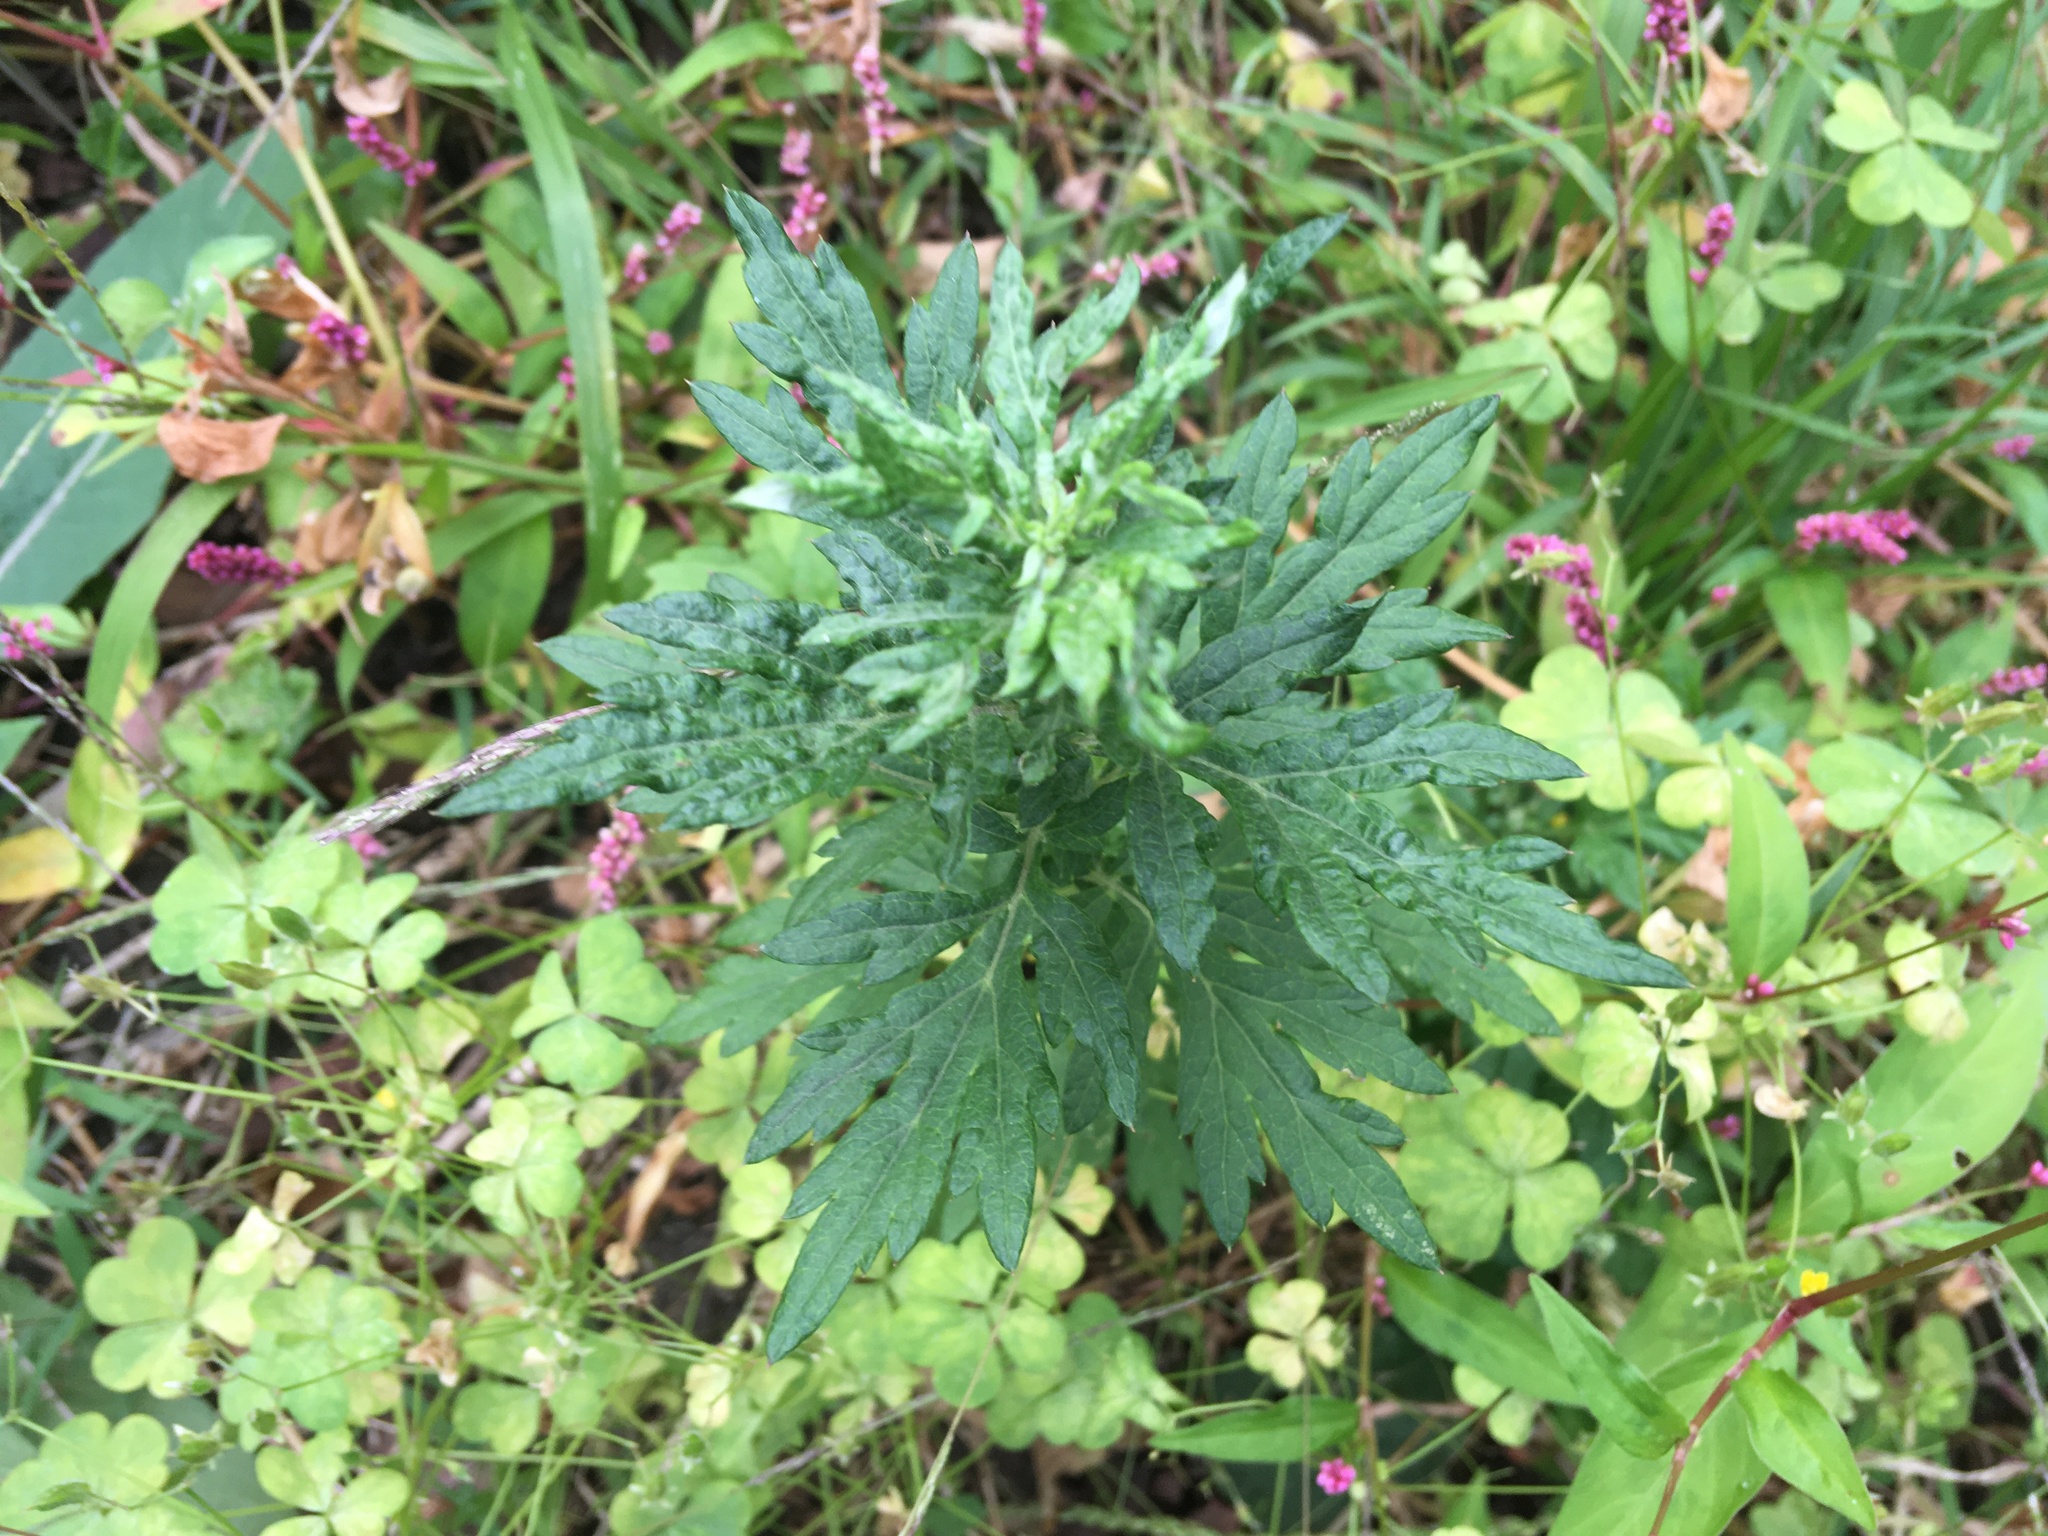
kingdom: Plantae
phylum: Tracheophyta
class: Magnoliopsida
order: Asterales
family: Asteraceae
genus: Artemisia
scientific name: Artemisia vulgaris
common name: Mugwort
